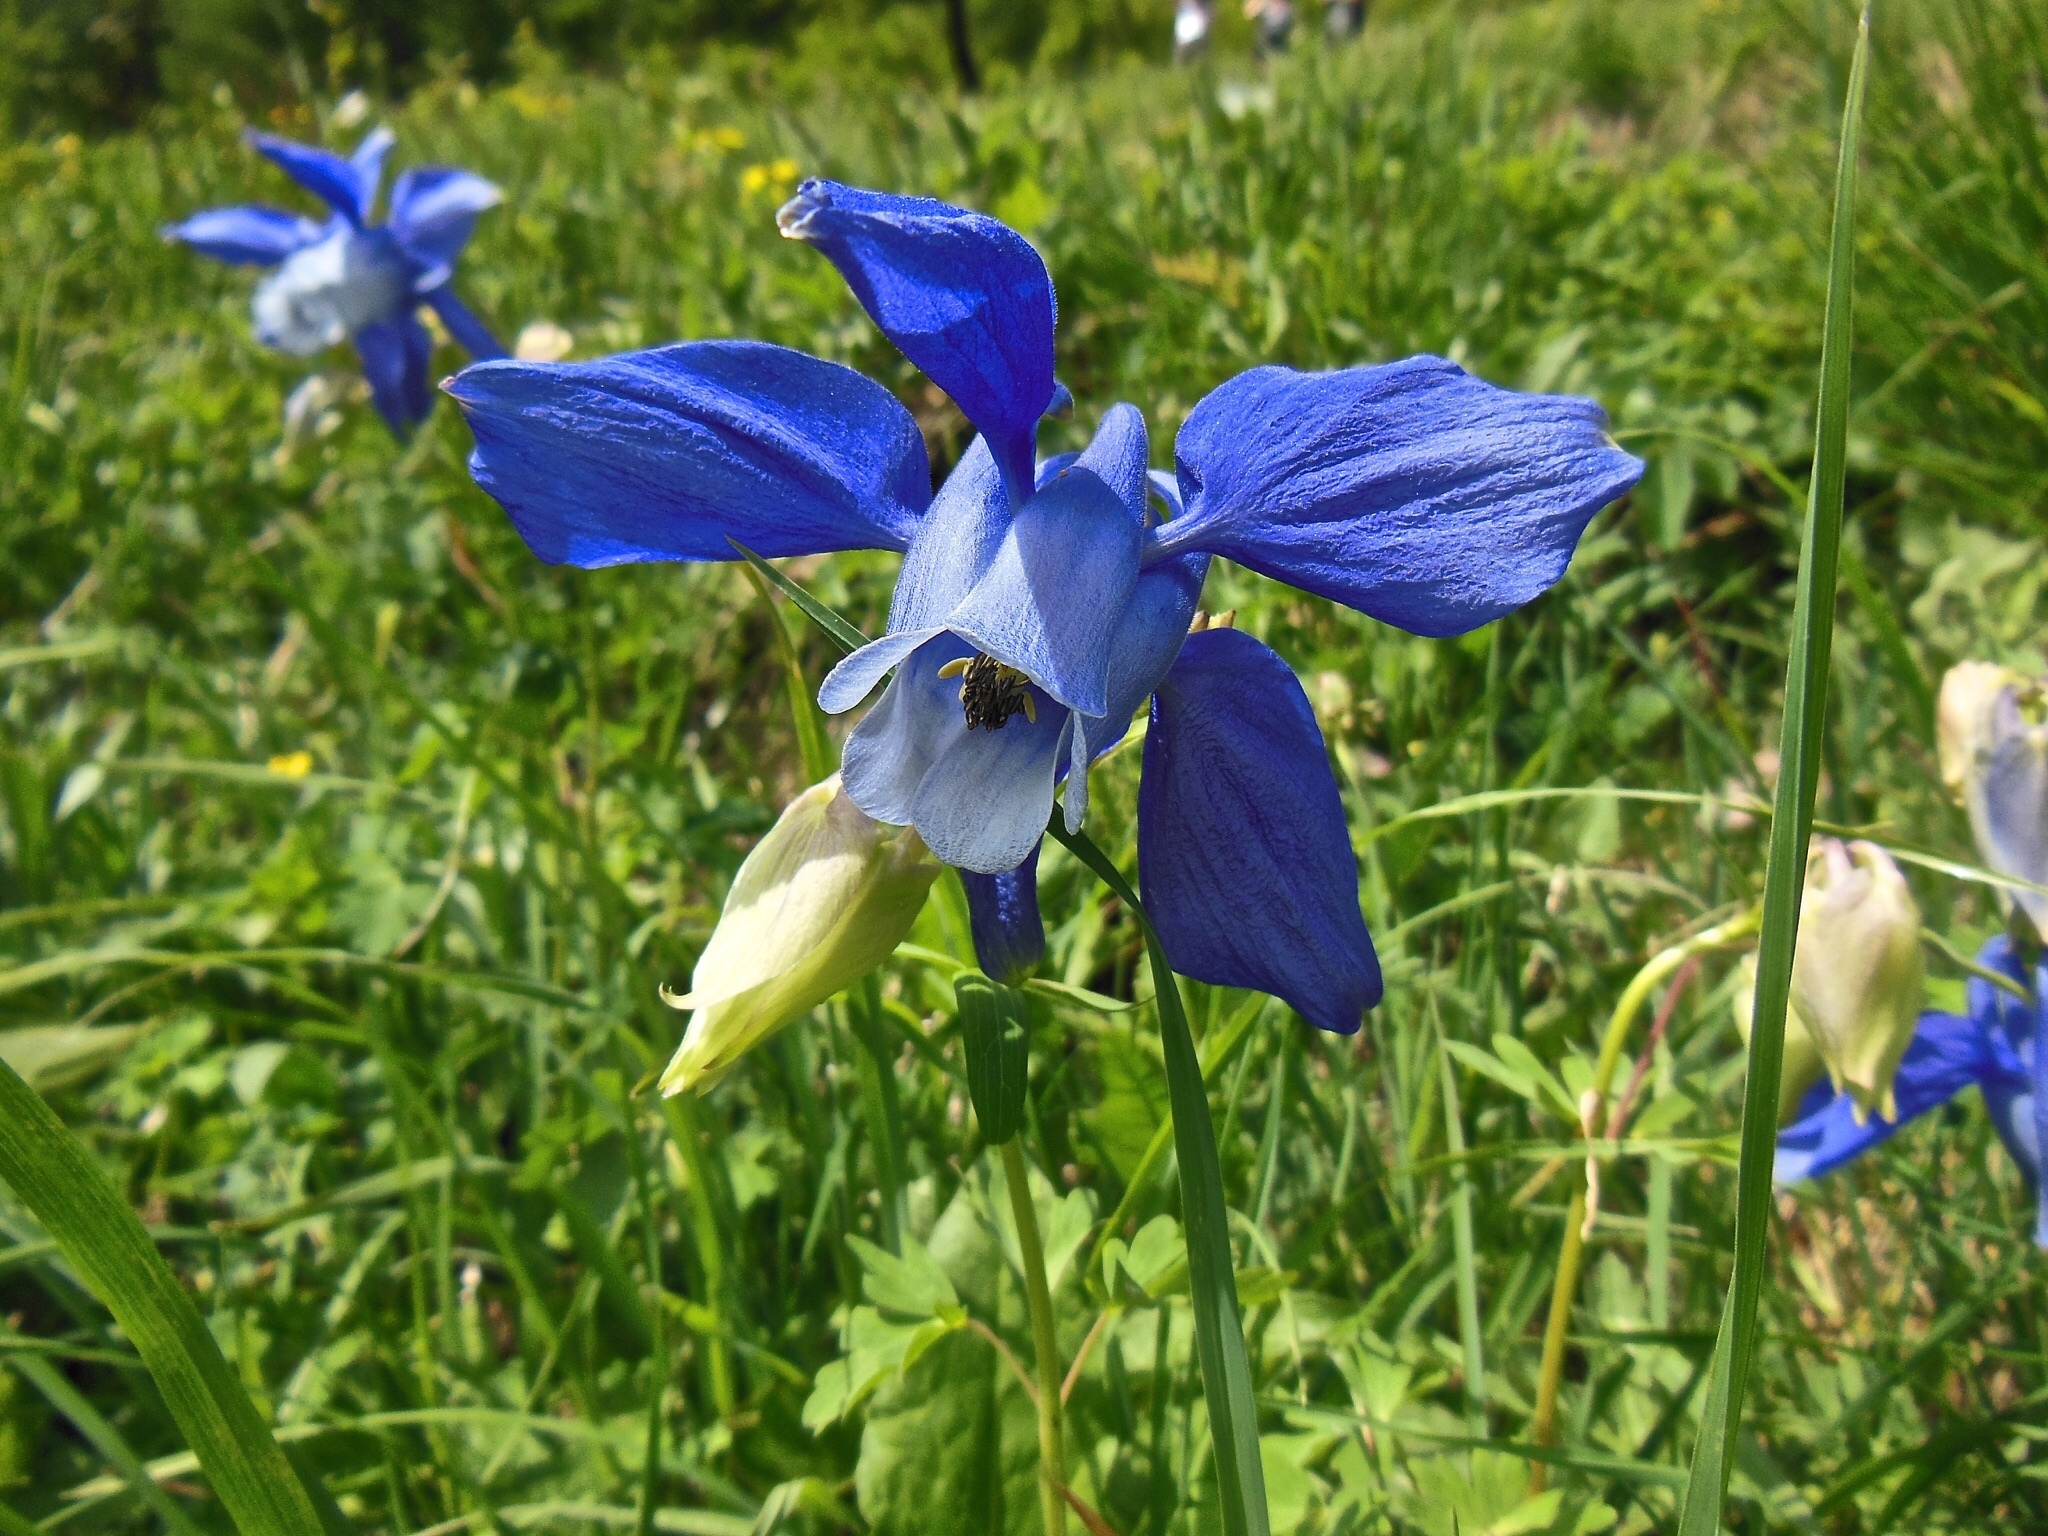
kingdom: Plantae
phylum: Tracheophyta
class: Magnoliopsida
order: Ranunculales
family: Ranunculaceae
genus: Aquilegia
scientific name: Aquilegia alpina
